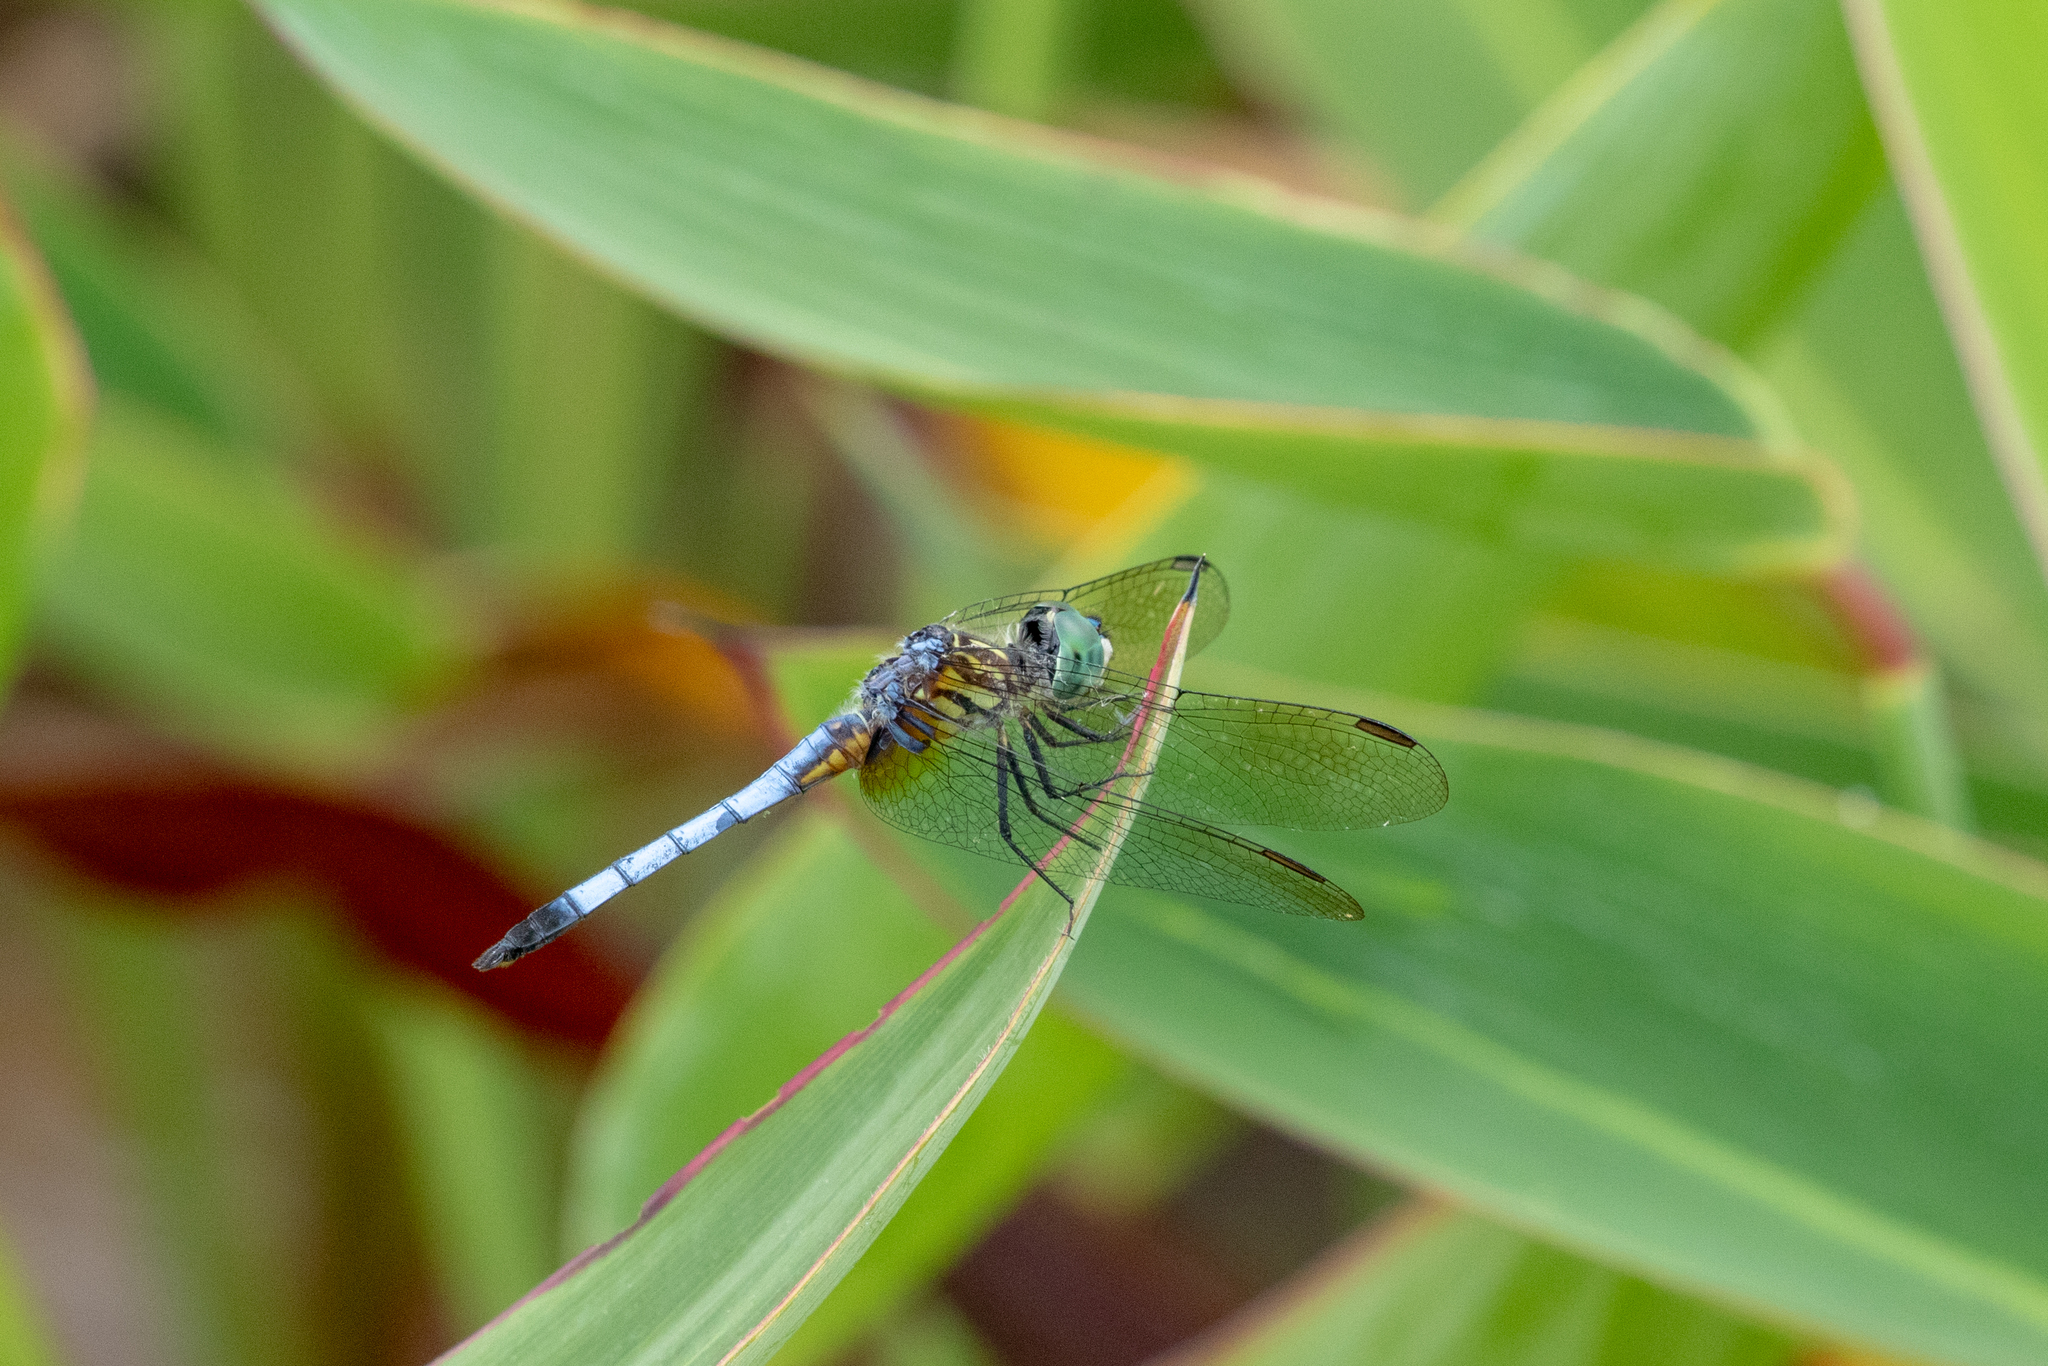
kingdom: Animalia
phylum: Arthropoda
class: Insecta
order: Odonata
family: Libellulidae
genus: Pachydiplax
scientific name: Pachydiplax longipennis
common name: Blue dasher
